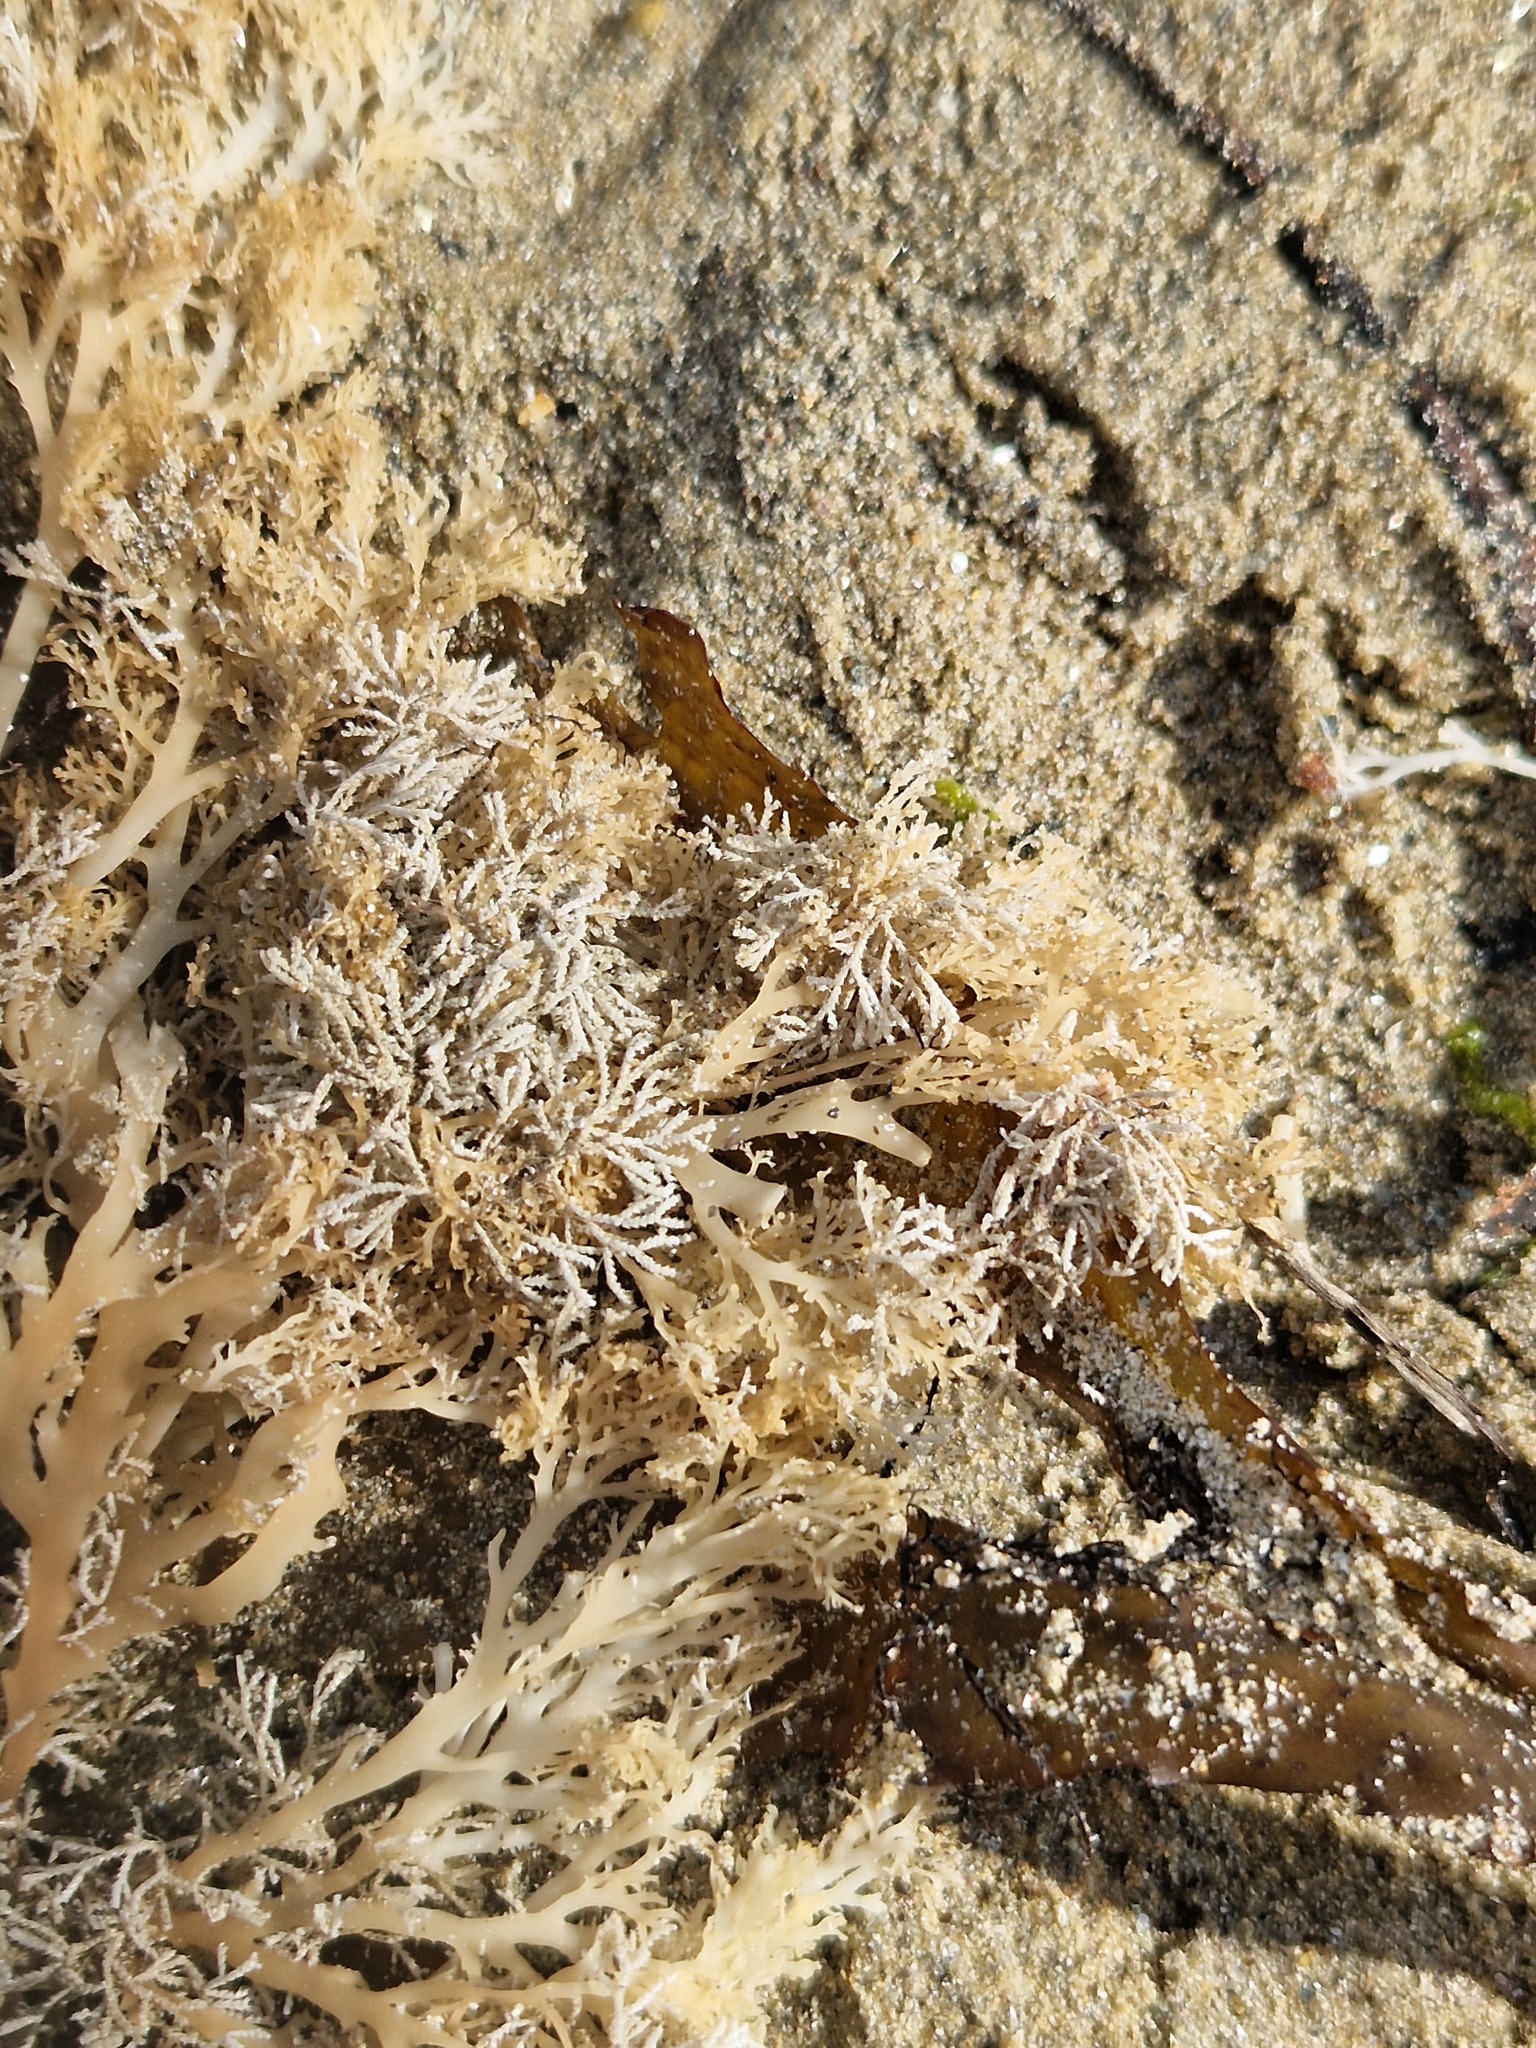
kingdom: Plantae
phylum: Rhodophyta
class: Florideophyceae
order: Gigartinales
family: Sphaerococcaceae
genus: Sphaerococcus
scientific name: Sphaerococcus coronopifolius
